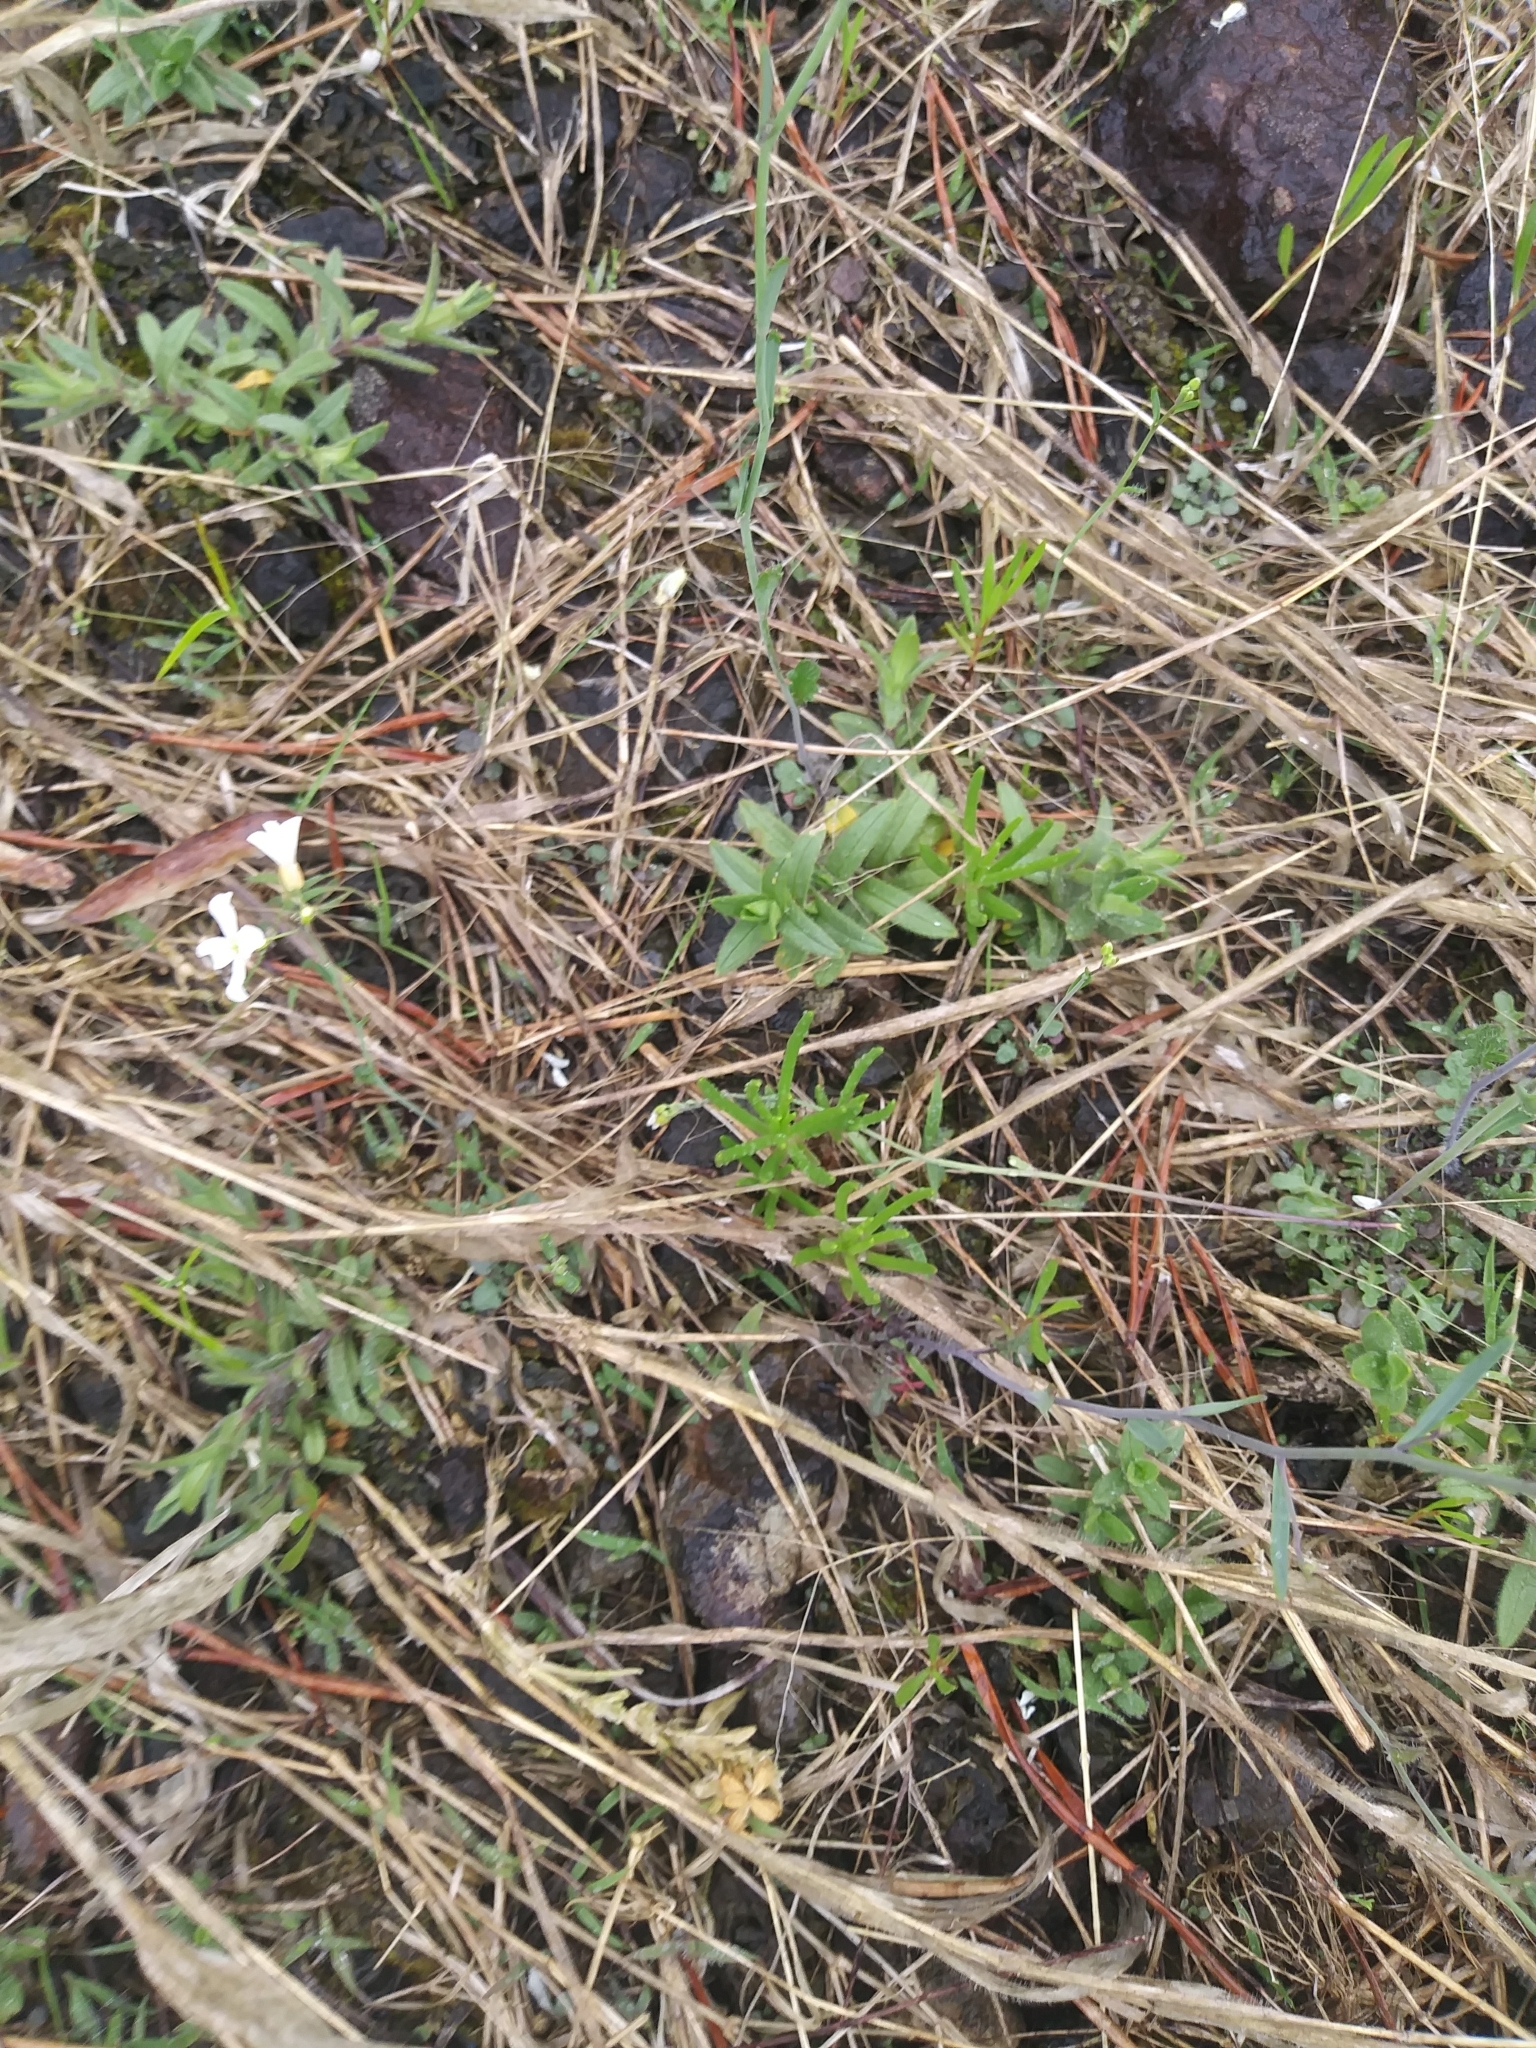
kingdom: Plantae
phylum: Tracheophyta
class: Magnoliopsida
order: Caryophyllales
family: Montiaceae
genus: Phemeranthus
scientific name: Phemeranthus teretifolius
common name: Quill fameflower
